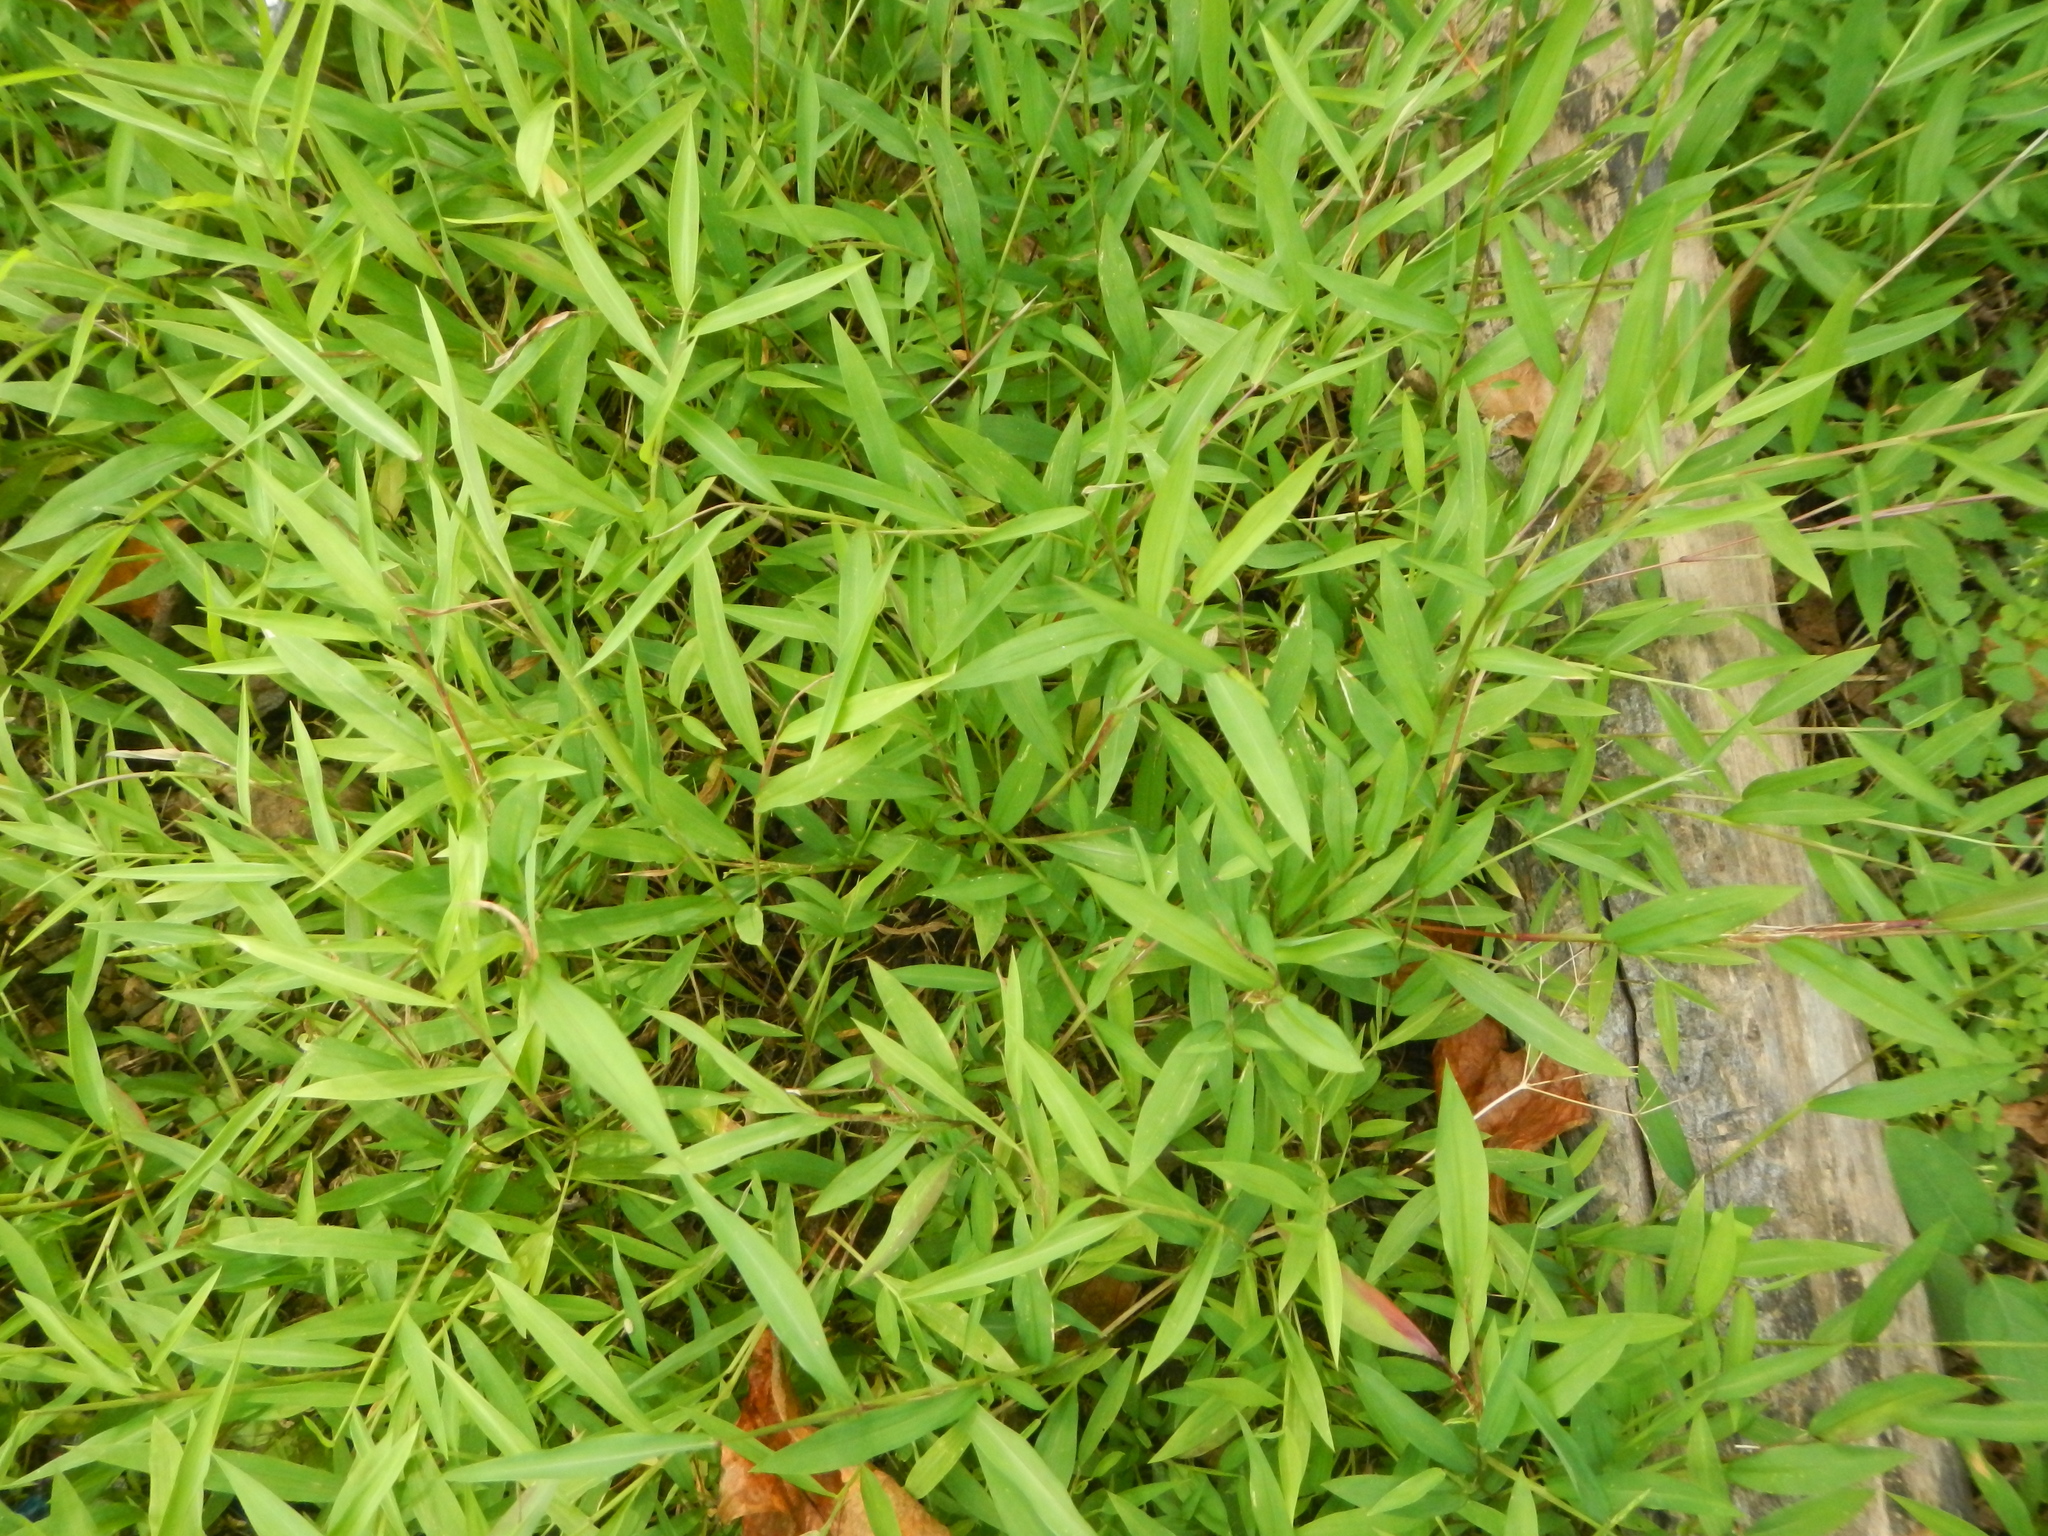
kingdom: Plantae
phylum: Tracheophyta
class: Liliopsida
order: Poales
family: Poaceae
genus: Microstegium
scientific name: Microstegium vimineum
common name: Japanese stiltgrass
